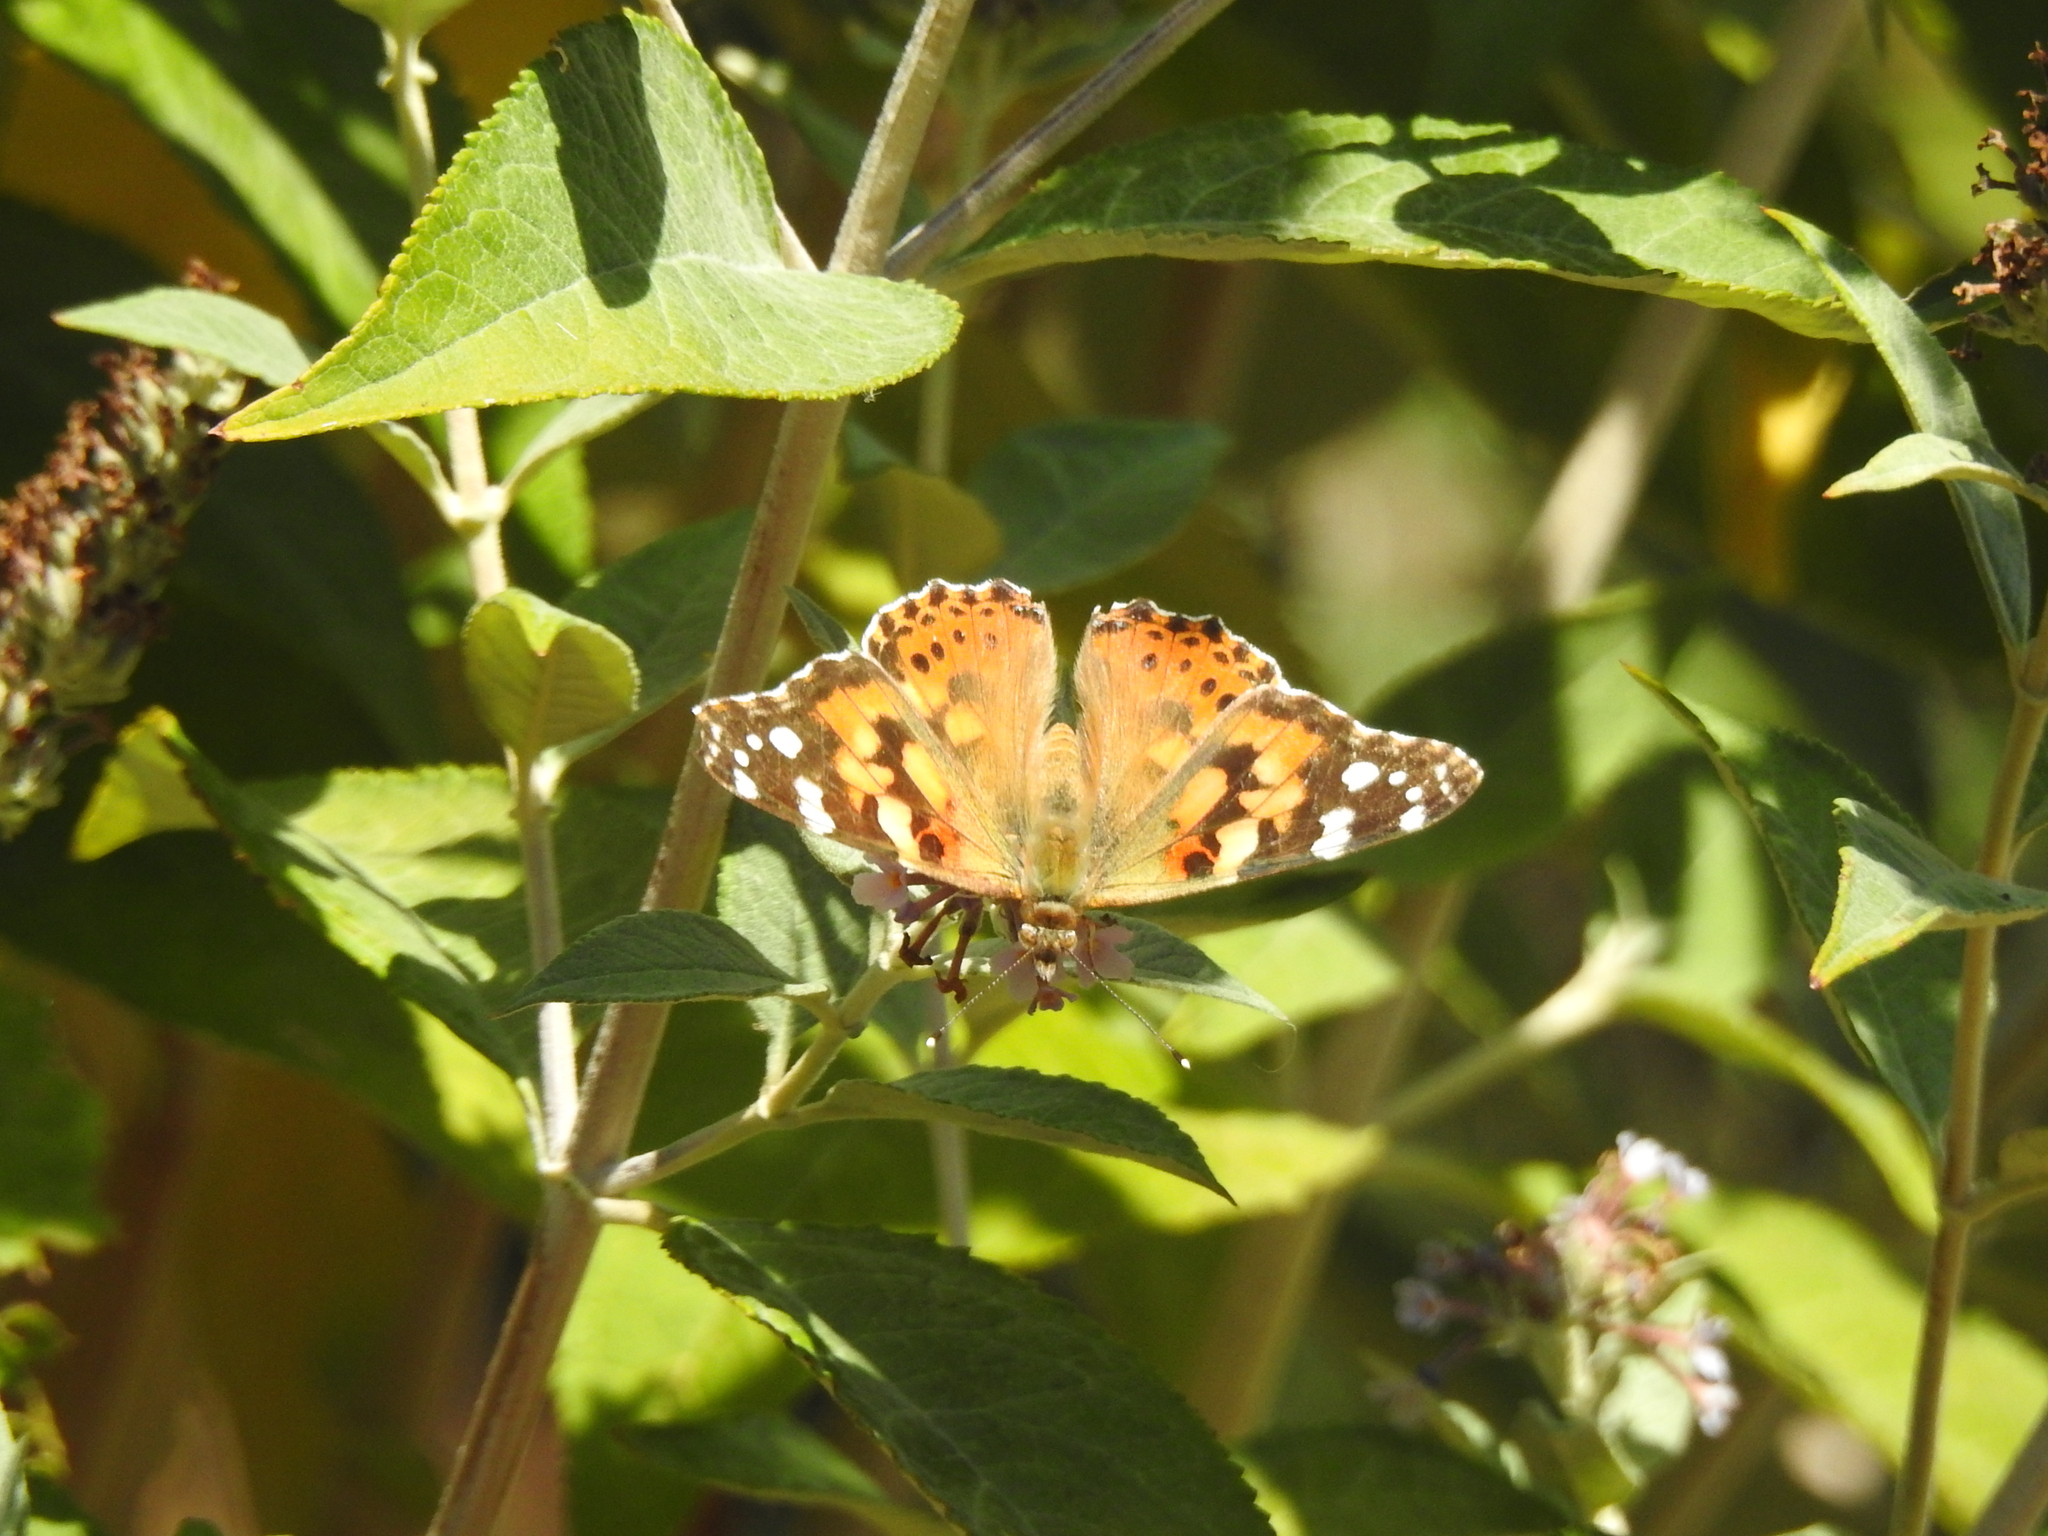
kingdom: Animalia
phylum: Arthropoda
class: Insecta
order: Lepidoptera
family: Nymphalidae
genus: Vanessa
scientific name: Vanessa cardui
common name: Painted lady
